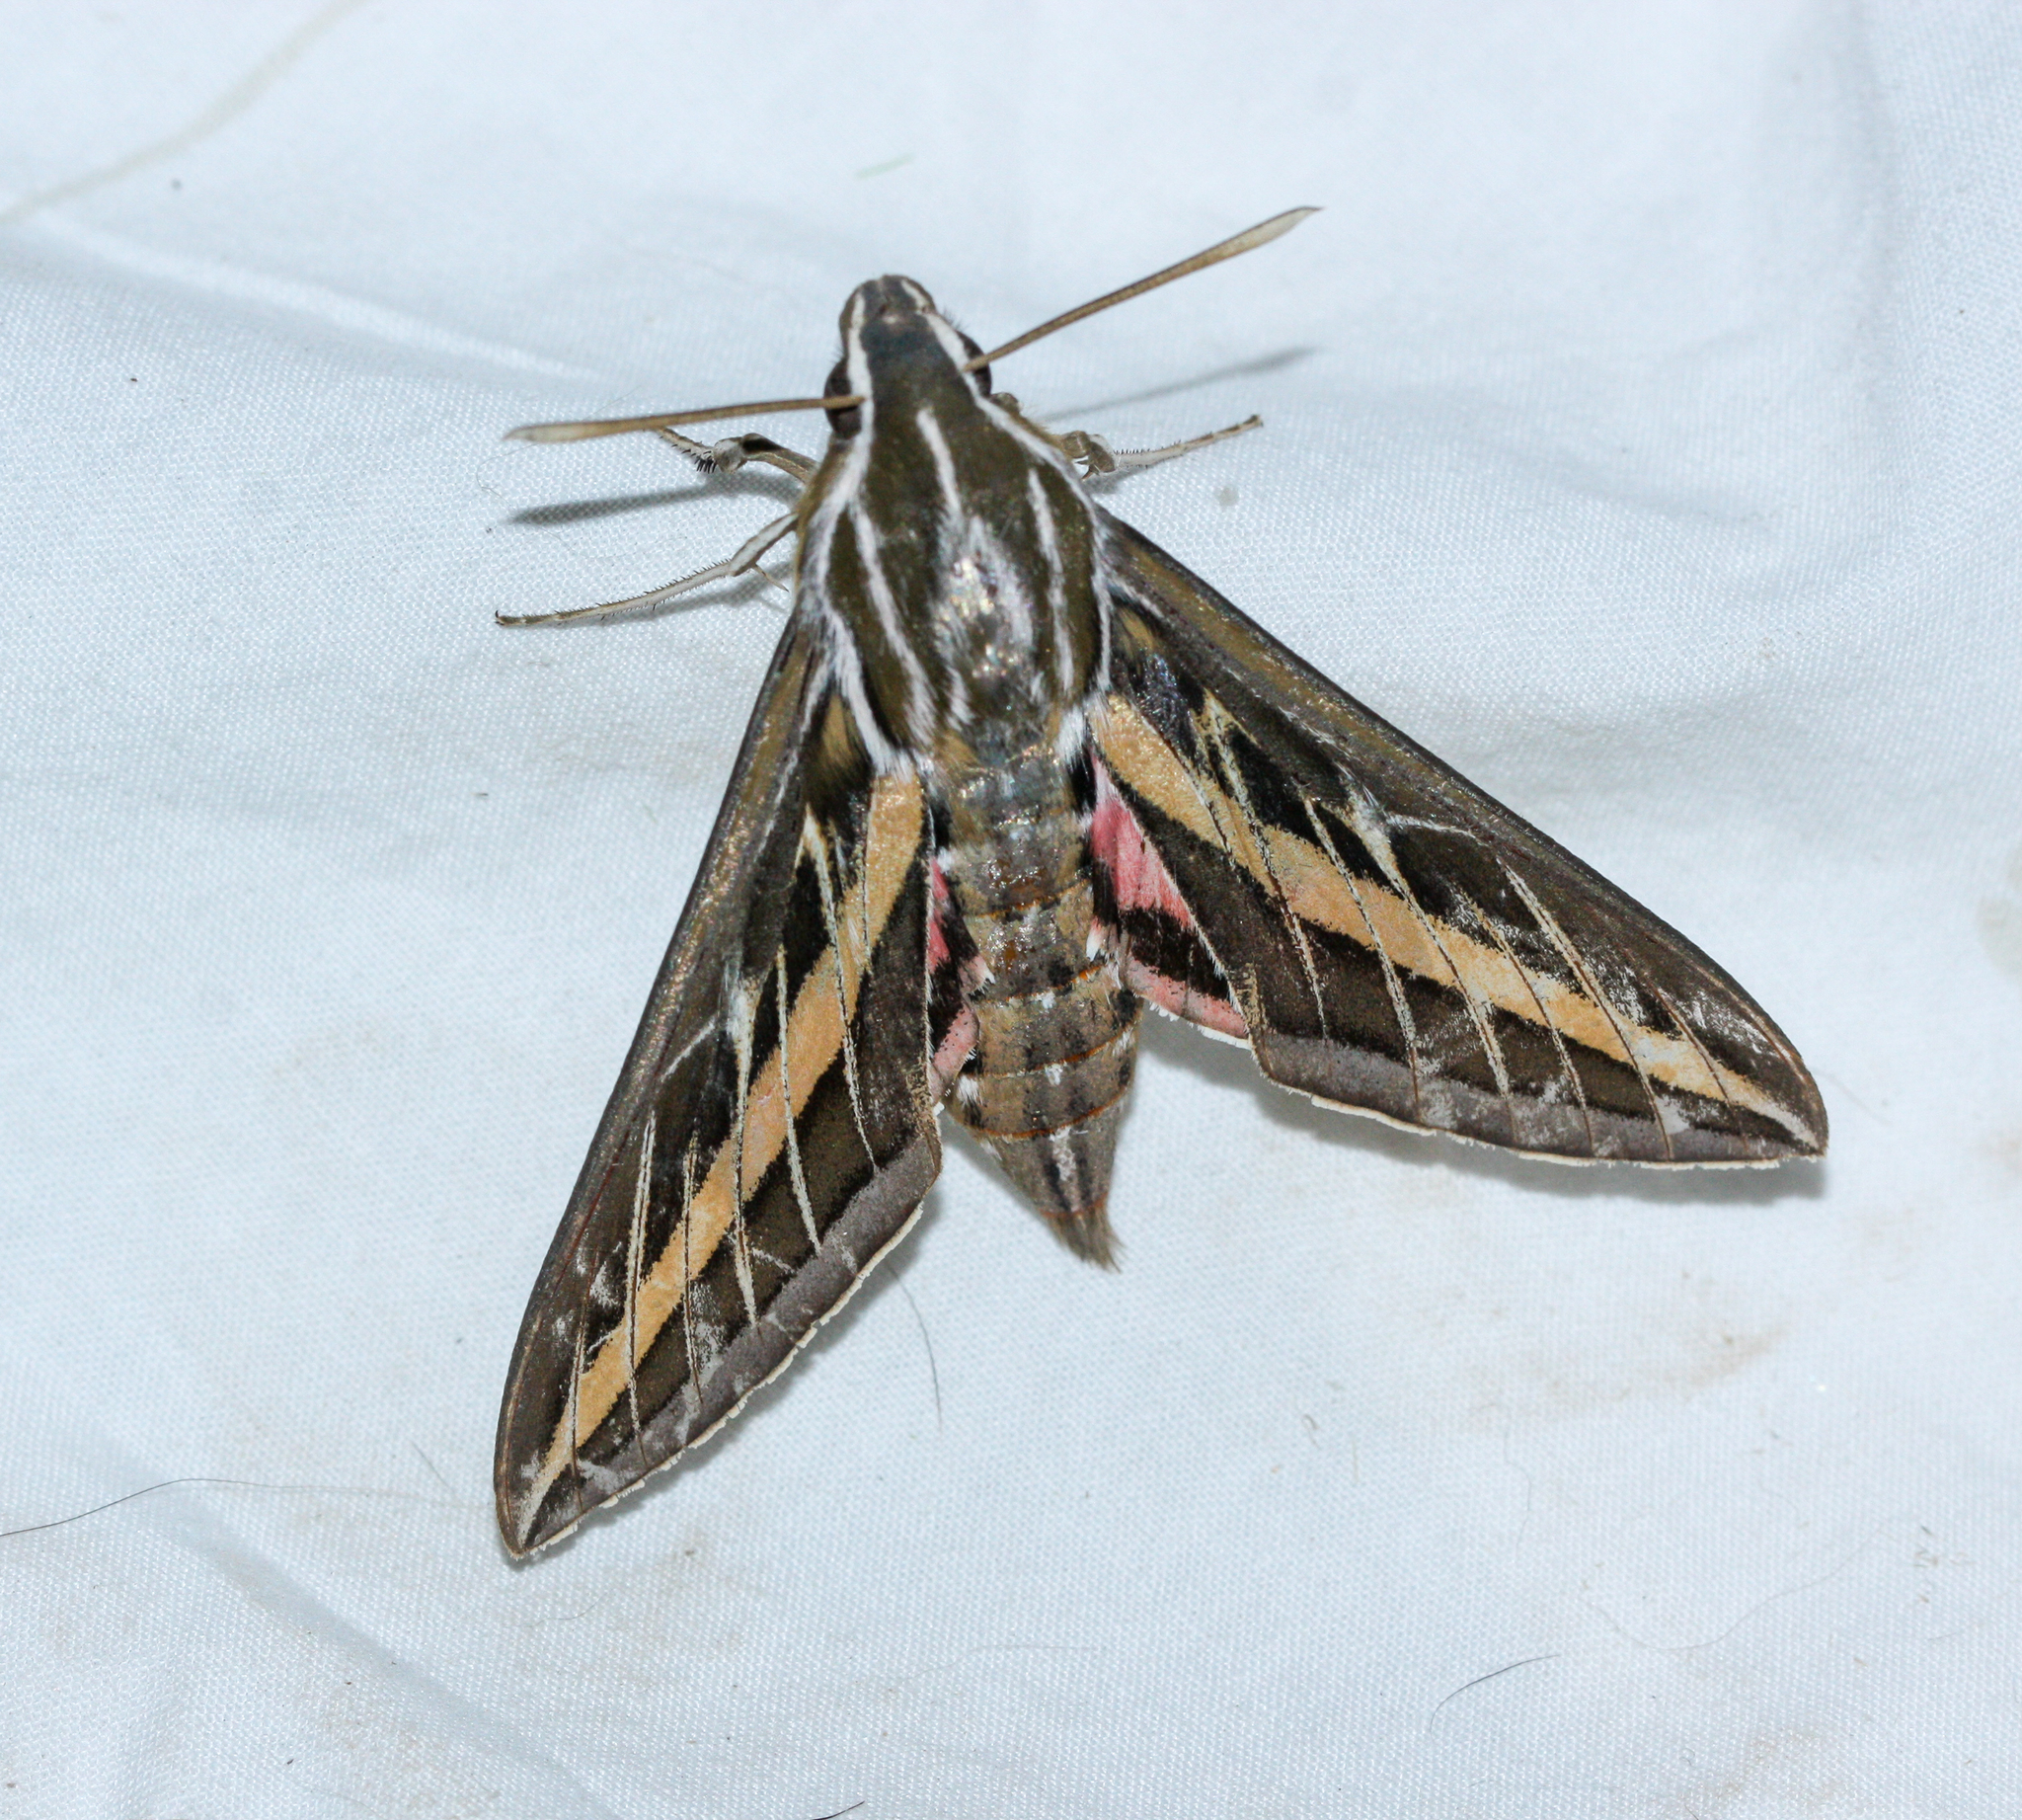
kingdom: Animalia
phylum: Arthropoda
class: Insecta
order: Lepidoptera
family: Sphingidae
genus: Hyles
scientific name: Hyles lineata
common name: White-lined sphinx
